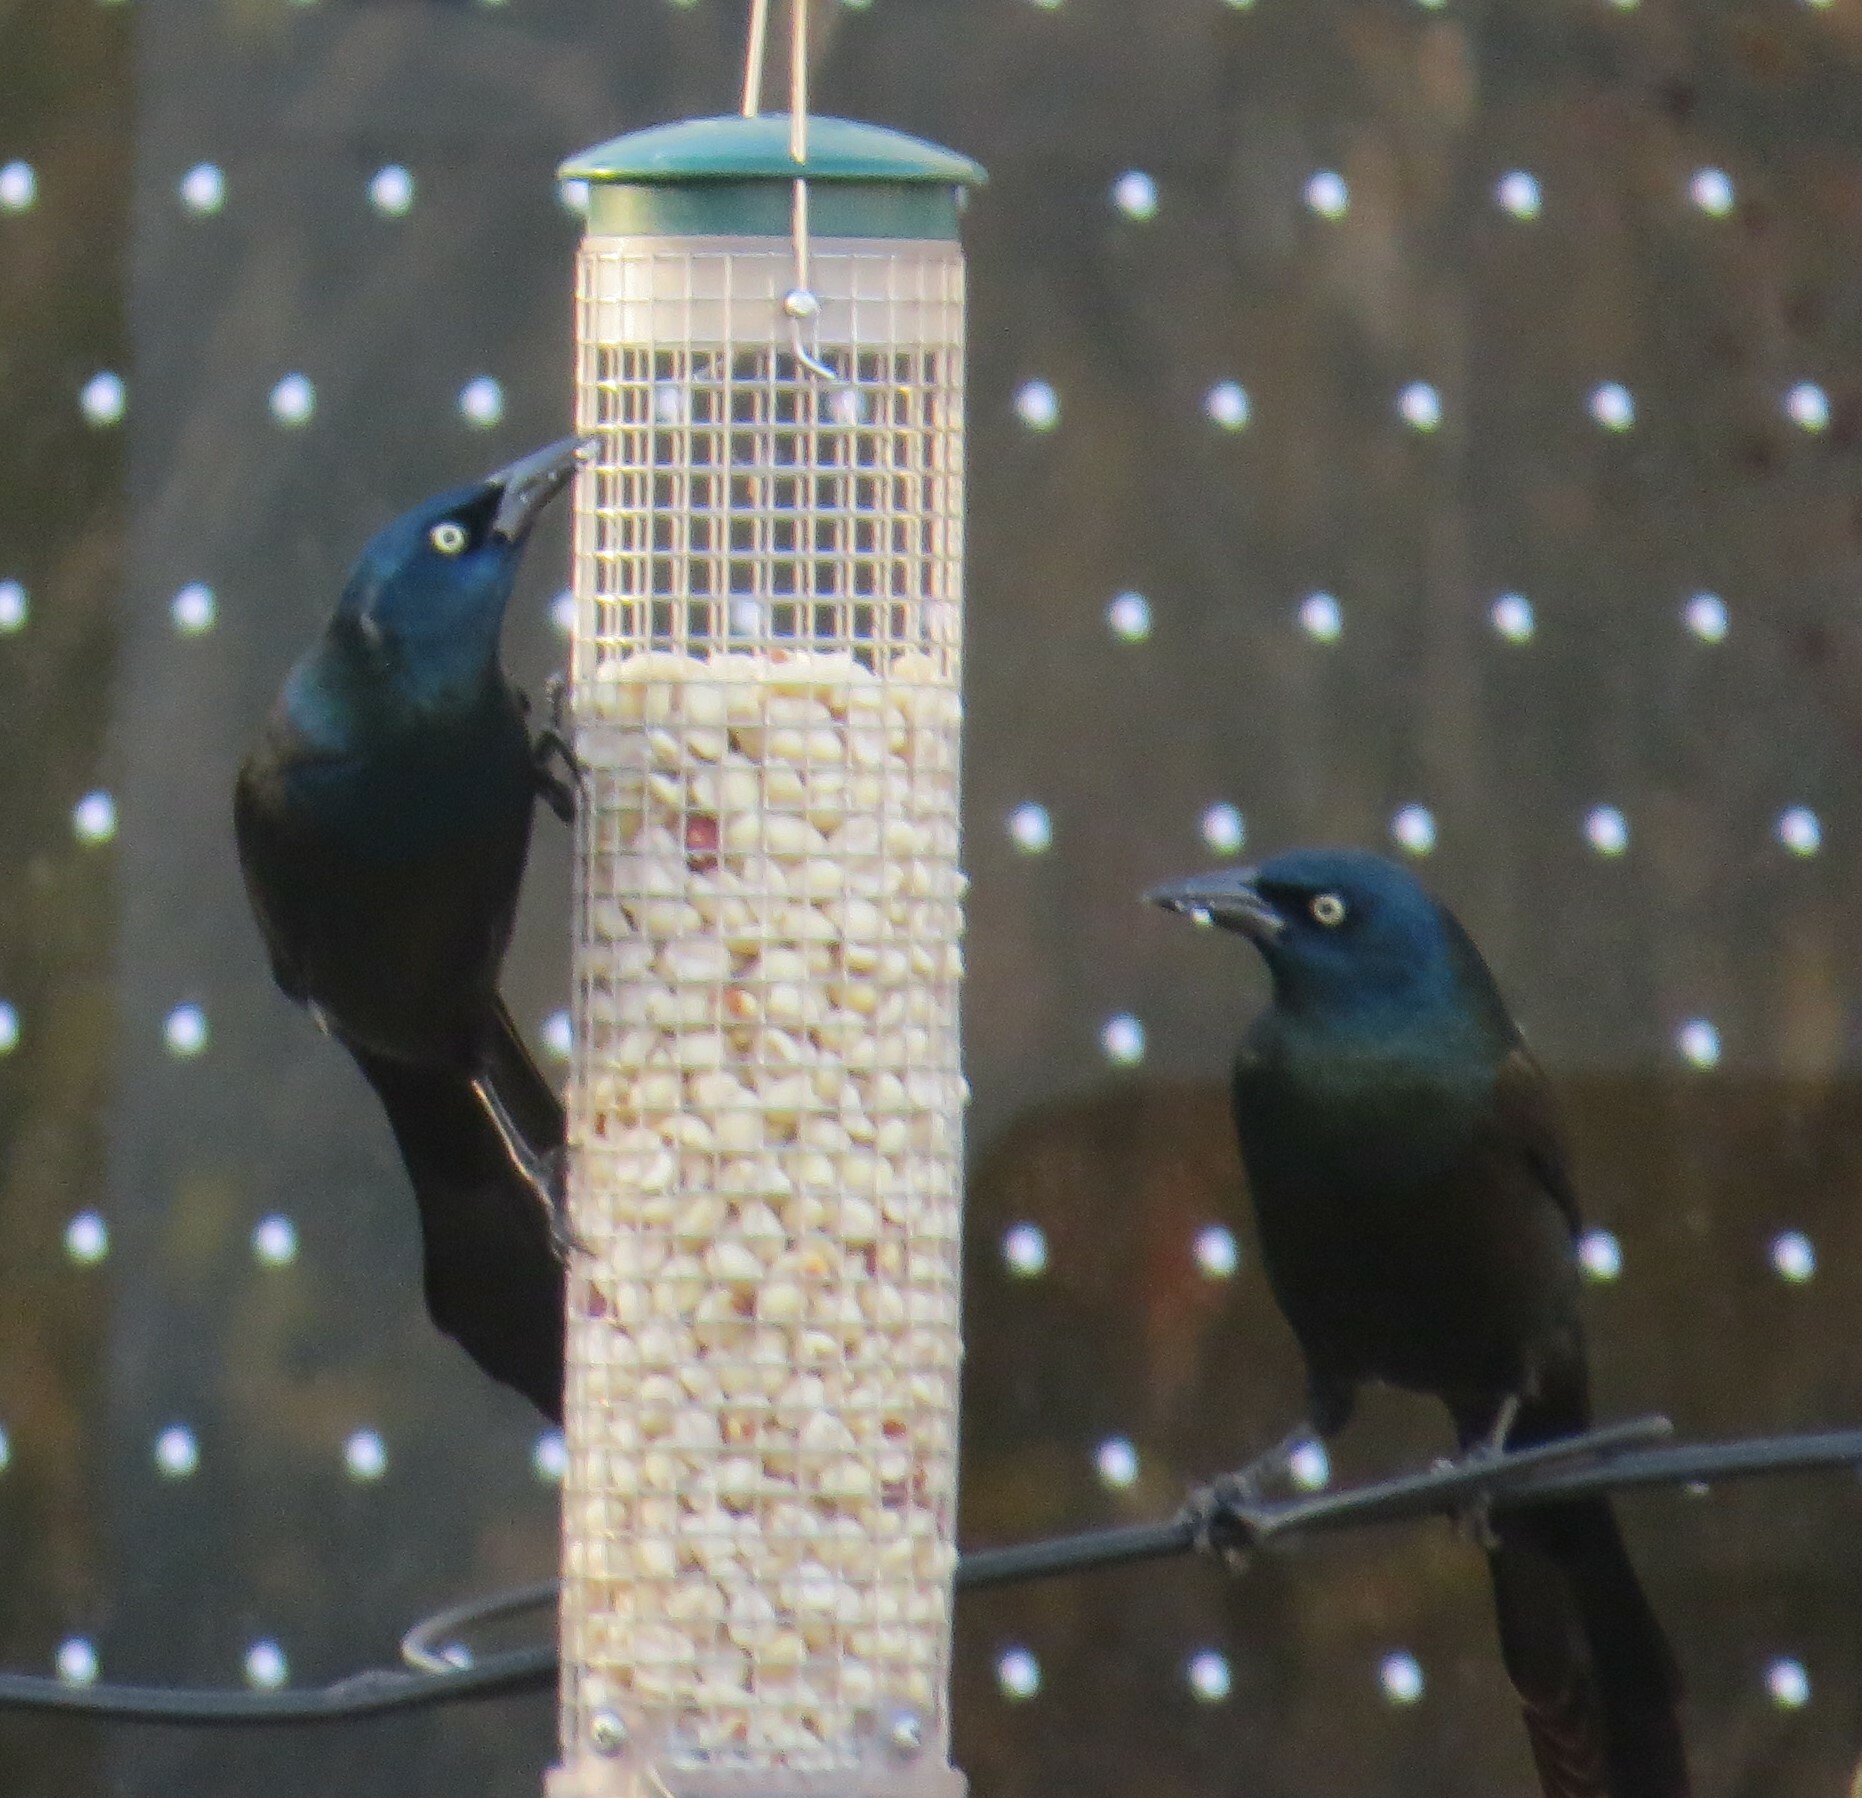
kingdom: Animalia
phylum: Chordata
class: Aves
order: Passeriformes
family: Icteridae
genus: Quiscalus
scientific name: Quiscalus quiscula
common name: Common grackle
